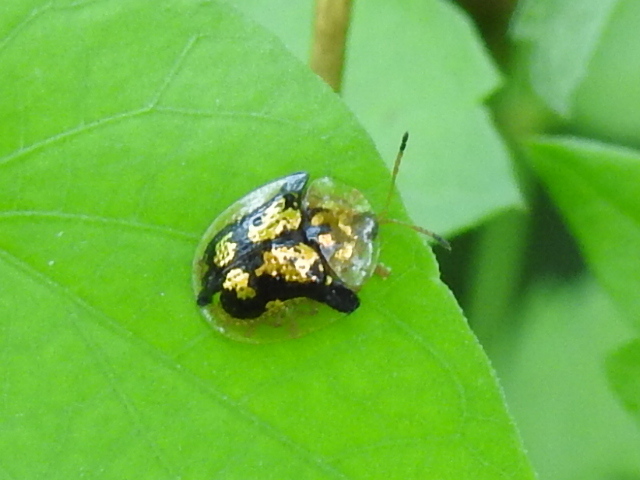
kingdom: Animalia
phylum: Arthropoda
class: Insecta
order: Coleoptera
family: Chrysomelidae
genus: Deloyala
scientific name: Deloyala guttata
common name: Mottled tortoise beetle
